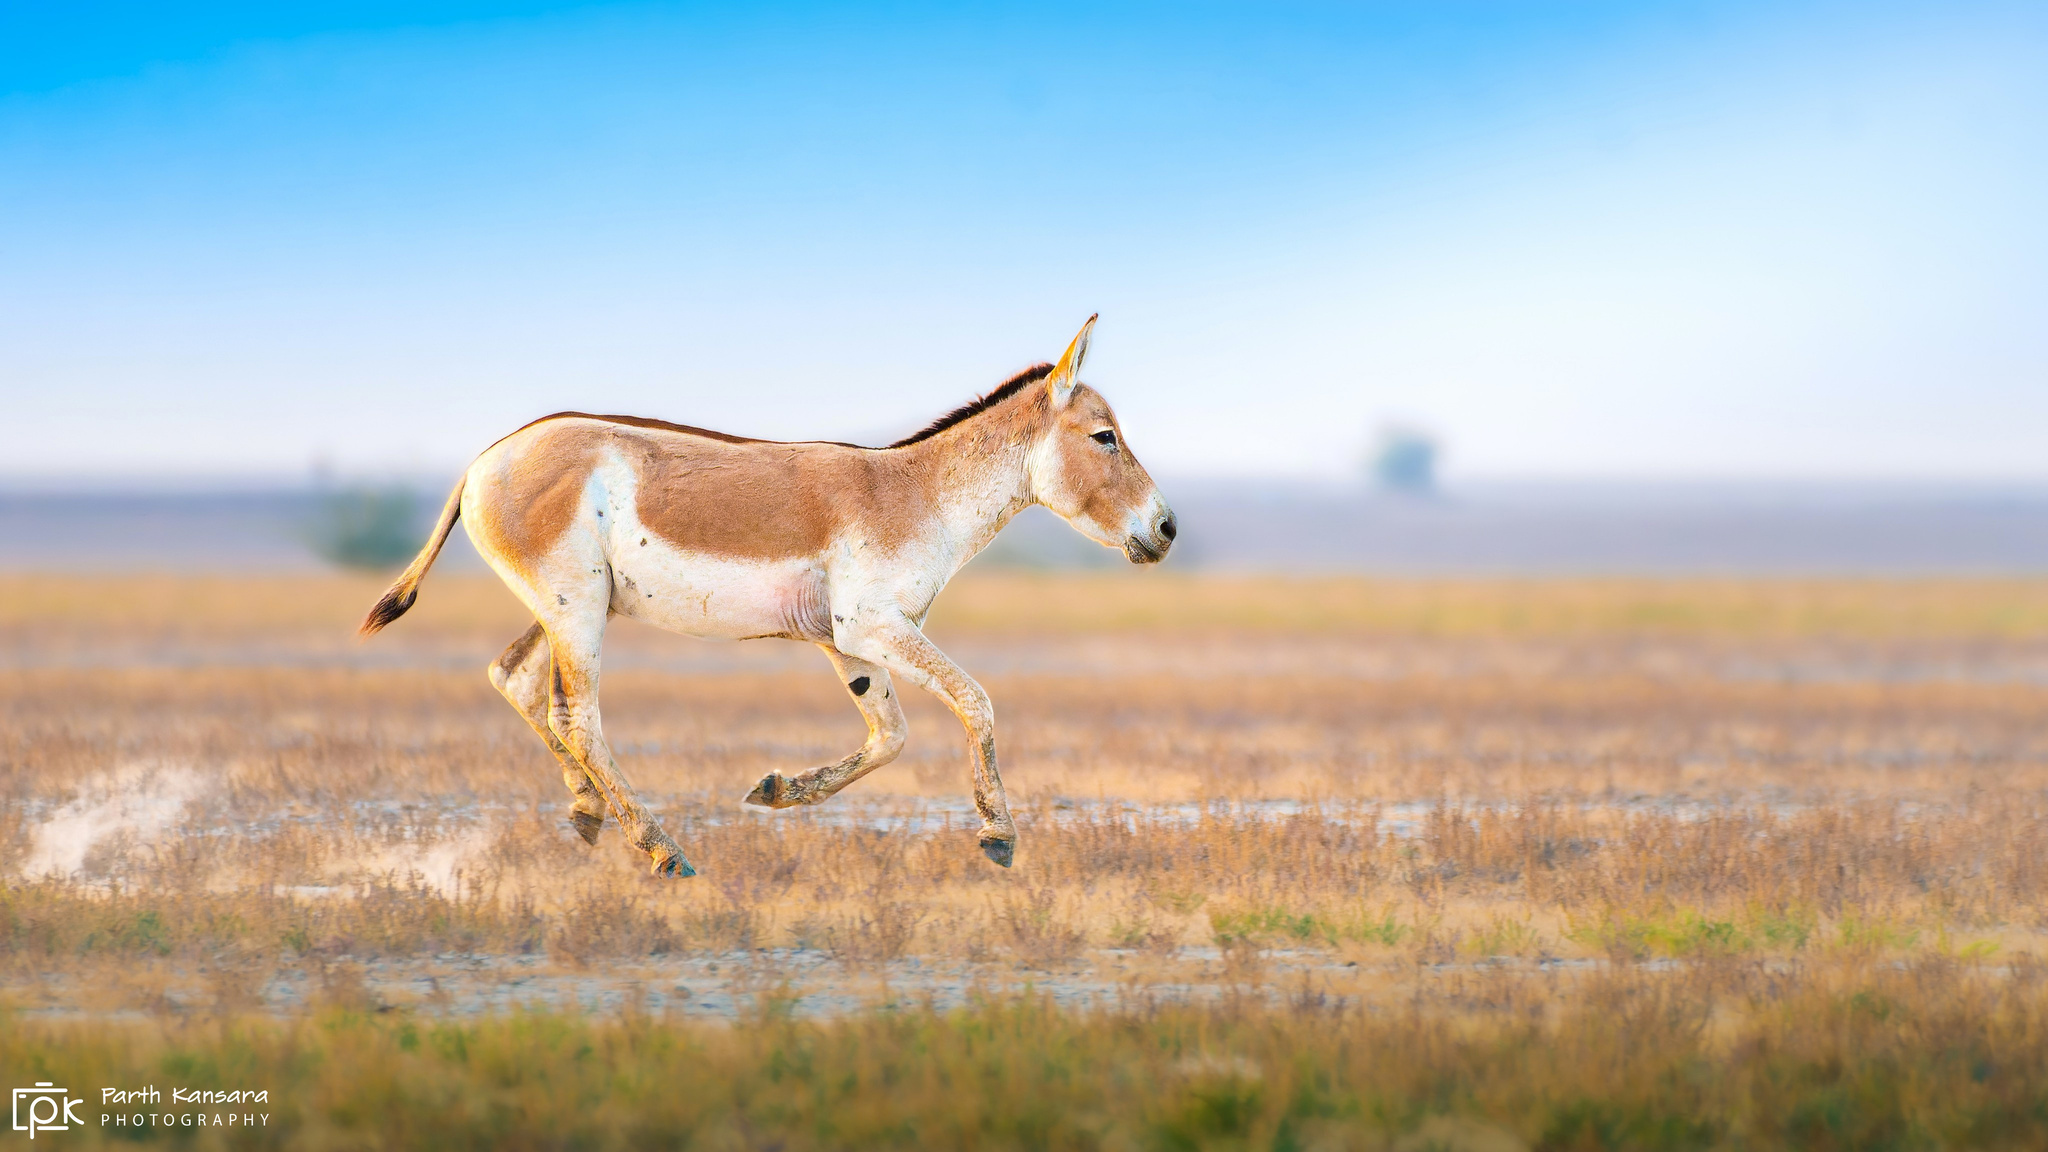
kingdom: Animalia
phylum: Chordata
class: Mammalia
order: Perissodactyla
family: Equidae
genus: Equus
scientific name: Equus khur
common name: Indian wild ass
